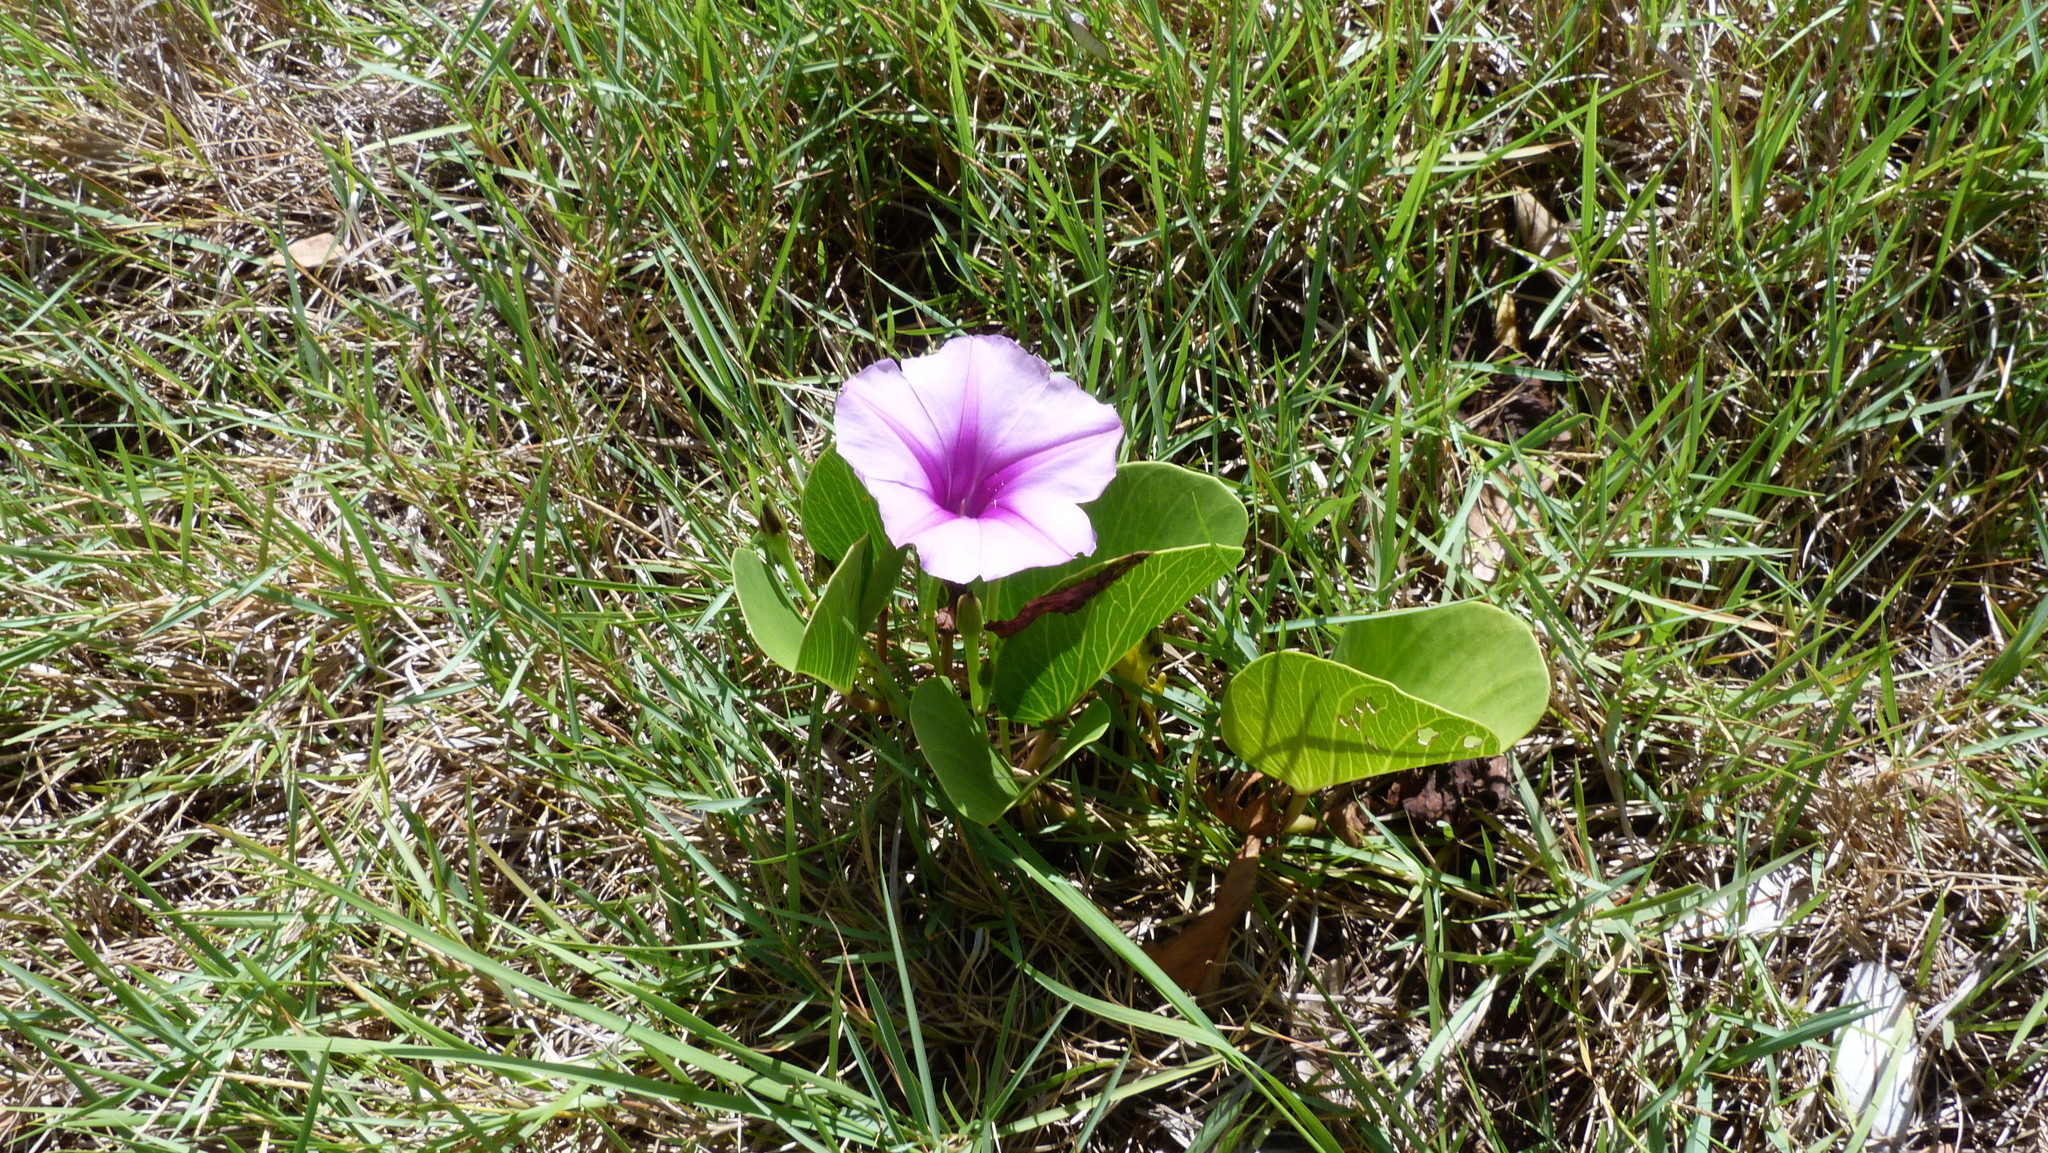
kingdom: Plantae
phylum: Tracheophyta
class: Magnoliopsida
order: Solanales
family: Convolvulaceae
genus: Ipomoea
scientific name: Ipomoea pes-caprae
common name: Beach morning glory
